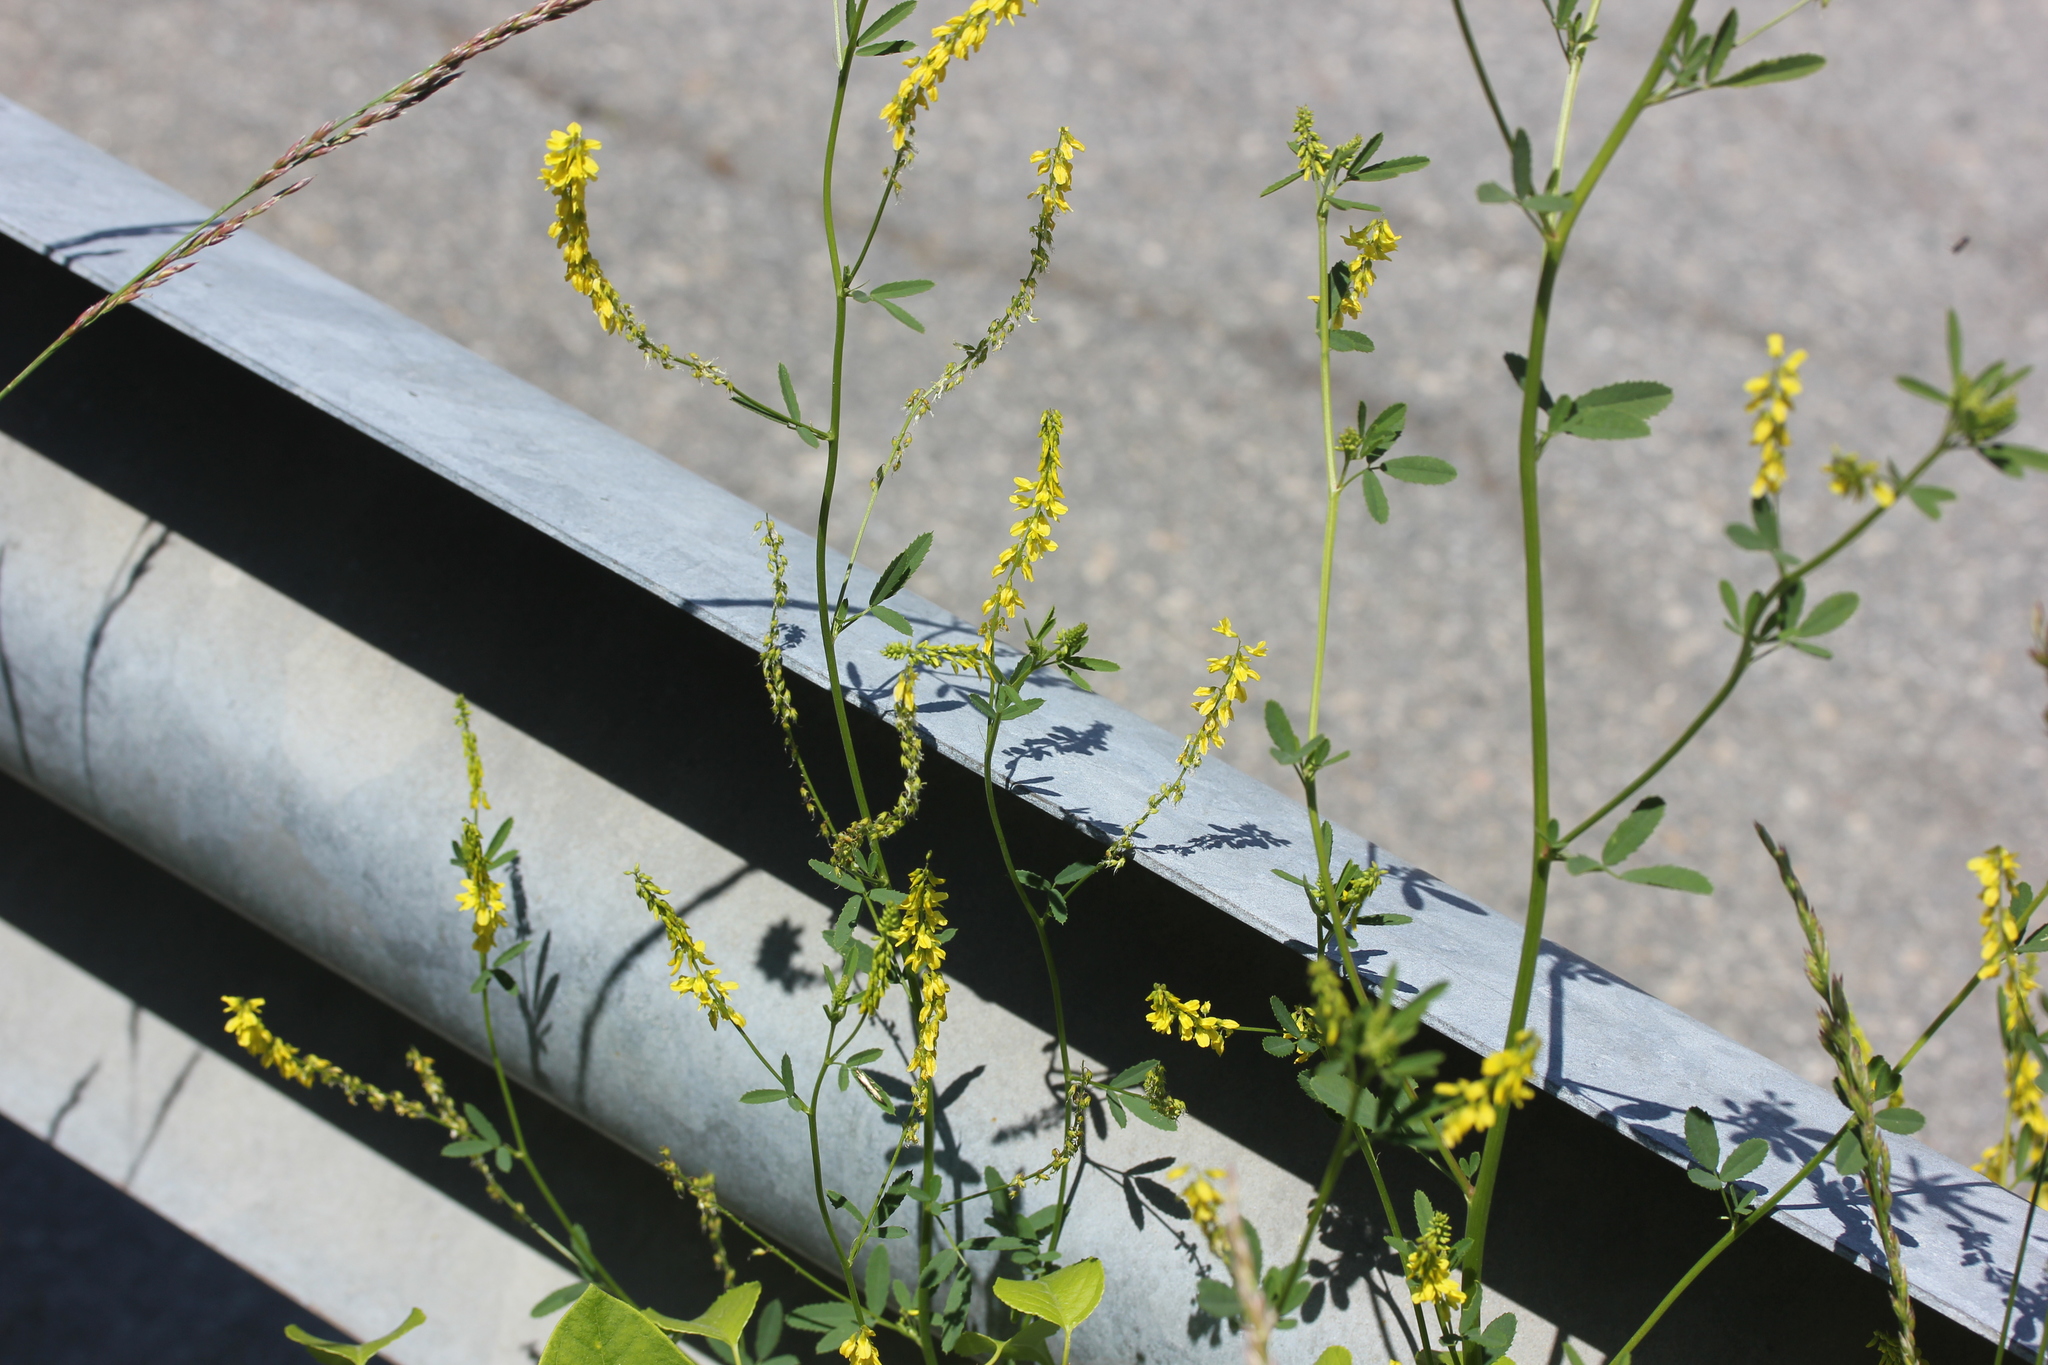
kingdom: Plantae
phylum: Tracheophyta
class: Magnoliopsida
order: Fabales
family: Fabaceae
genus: Melilotus
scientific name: Melilotus officinalis
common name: Sweetclover
